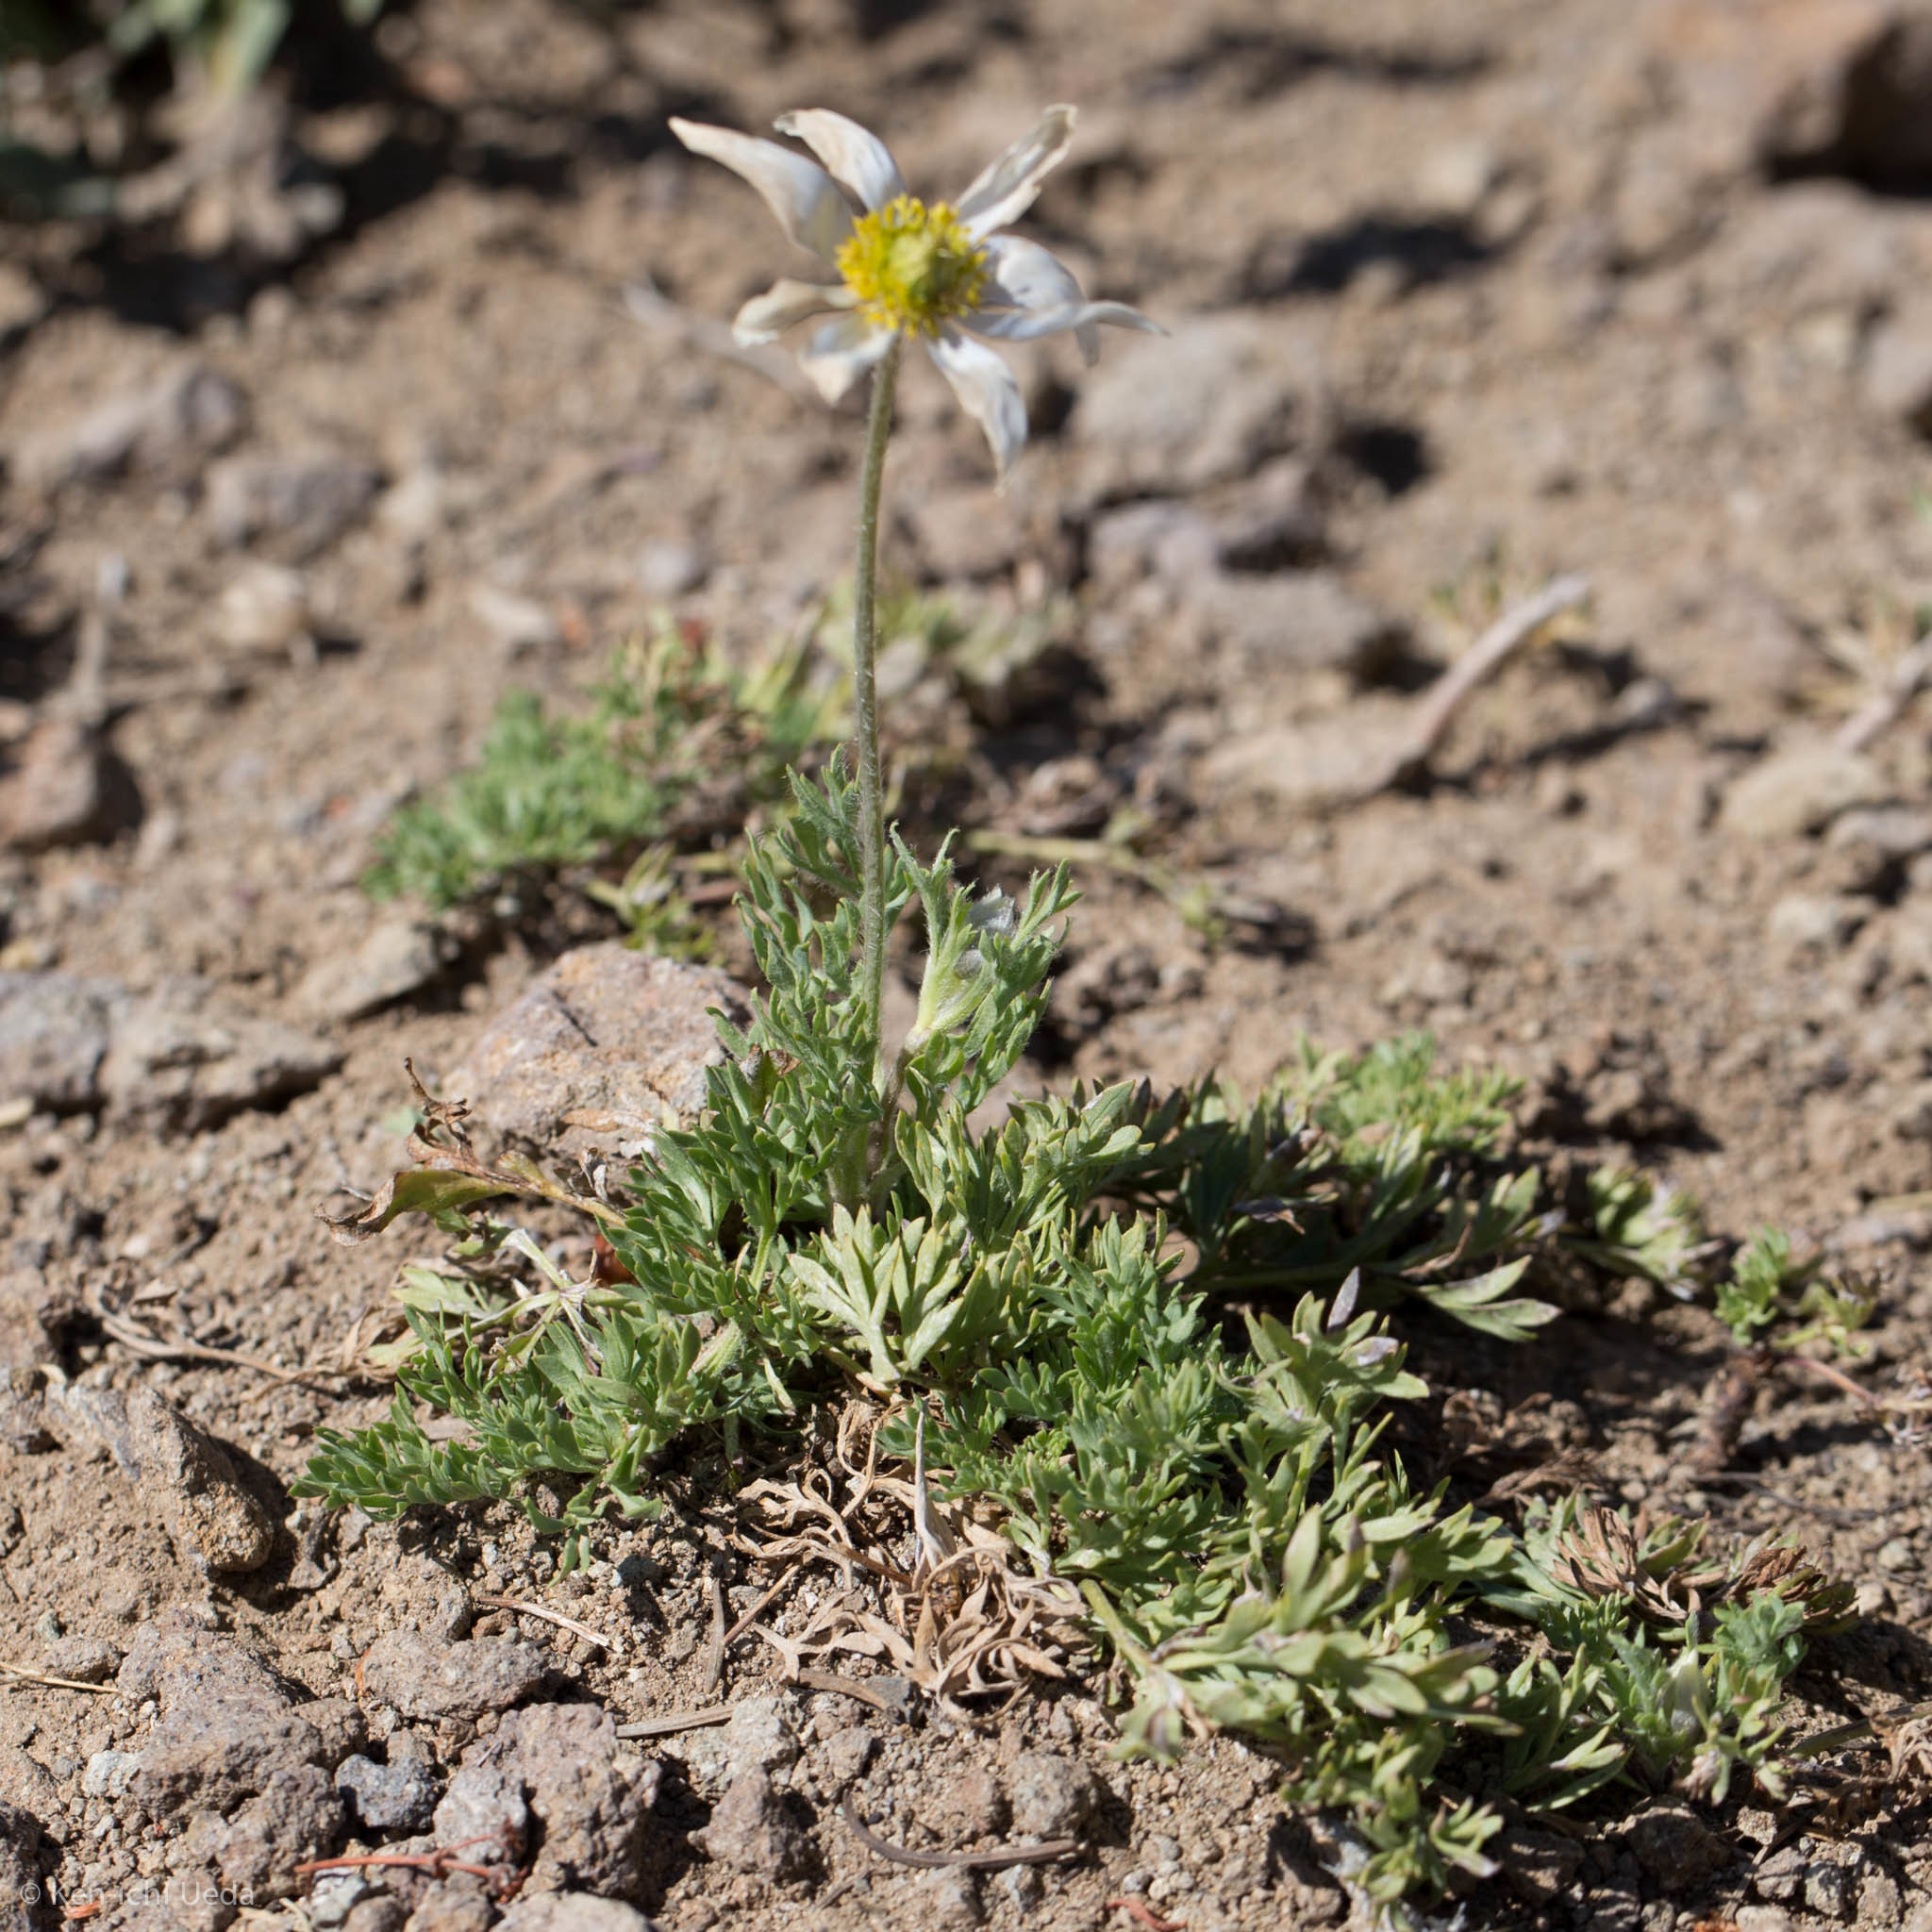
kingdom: Plantae
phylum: Tracheophyta
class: Magnoliopsida
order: Ranunculales
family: Ranunculaceae
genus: Anemone
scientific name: Anemone drummondii
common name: Drummond's anemone
